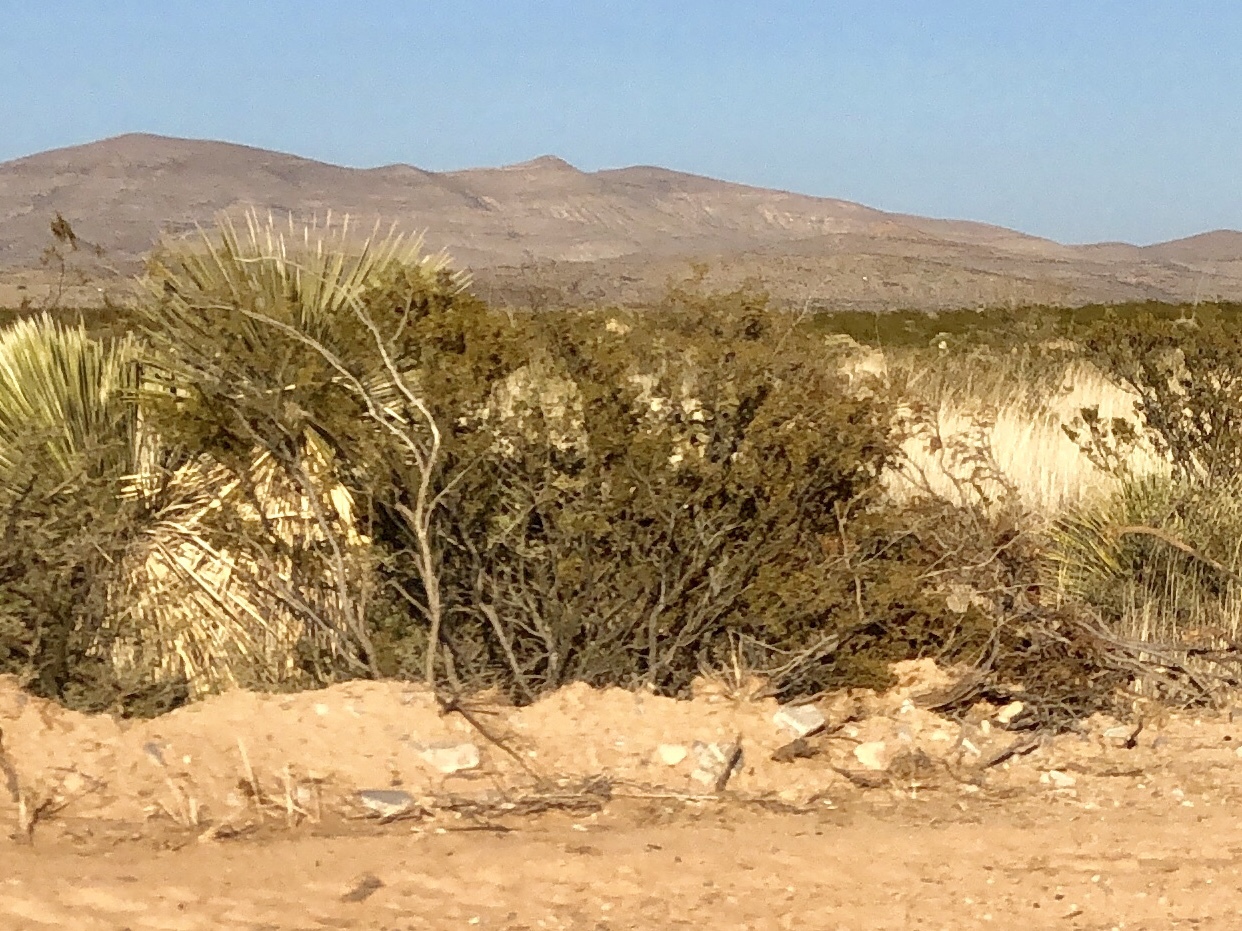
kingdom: Plantae
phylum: Tracheophyta
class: Magnoliopsida
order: Zygophyllales
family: Zygophyllaceae
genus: Larrea
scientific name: Larrea tridentata
